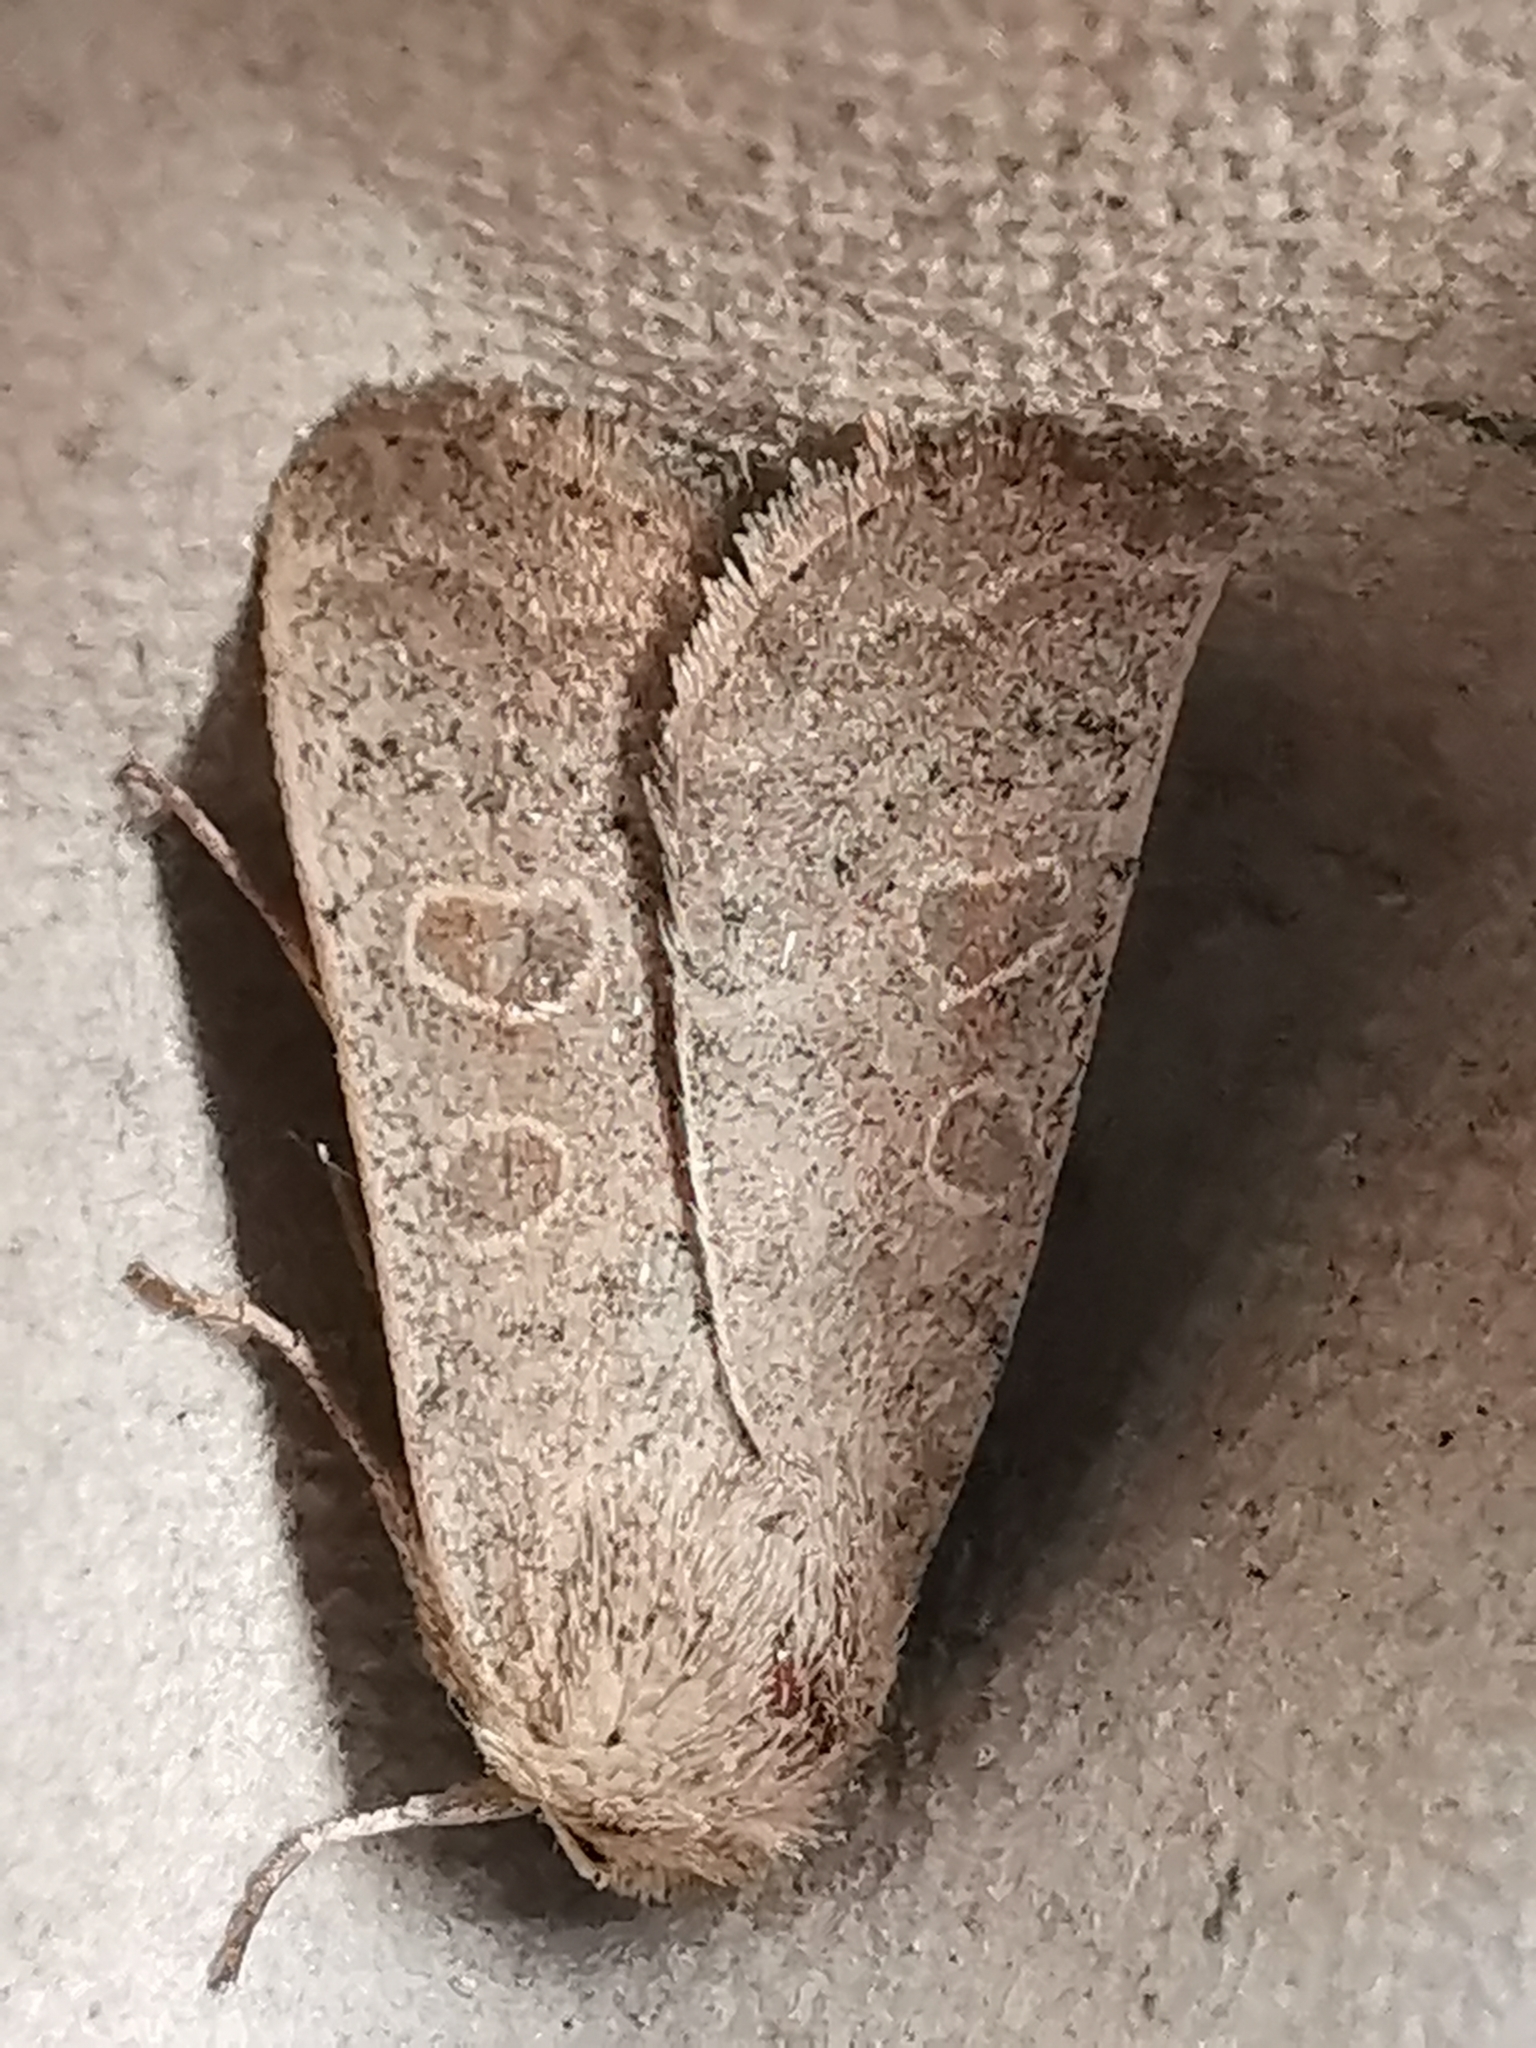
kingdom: Animalia
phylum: Arthropoda
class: Insecta
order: Lepidoptera
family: Noctuidae
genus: Hoplodrina
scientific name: Hoplodrina ambigua
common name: Vine's rustic
